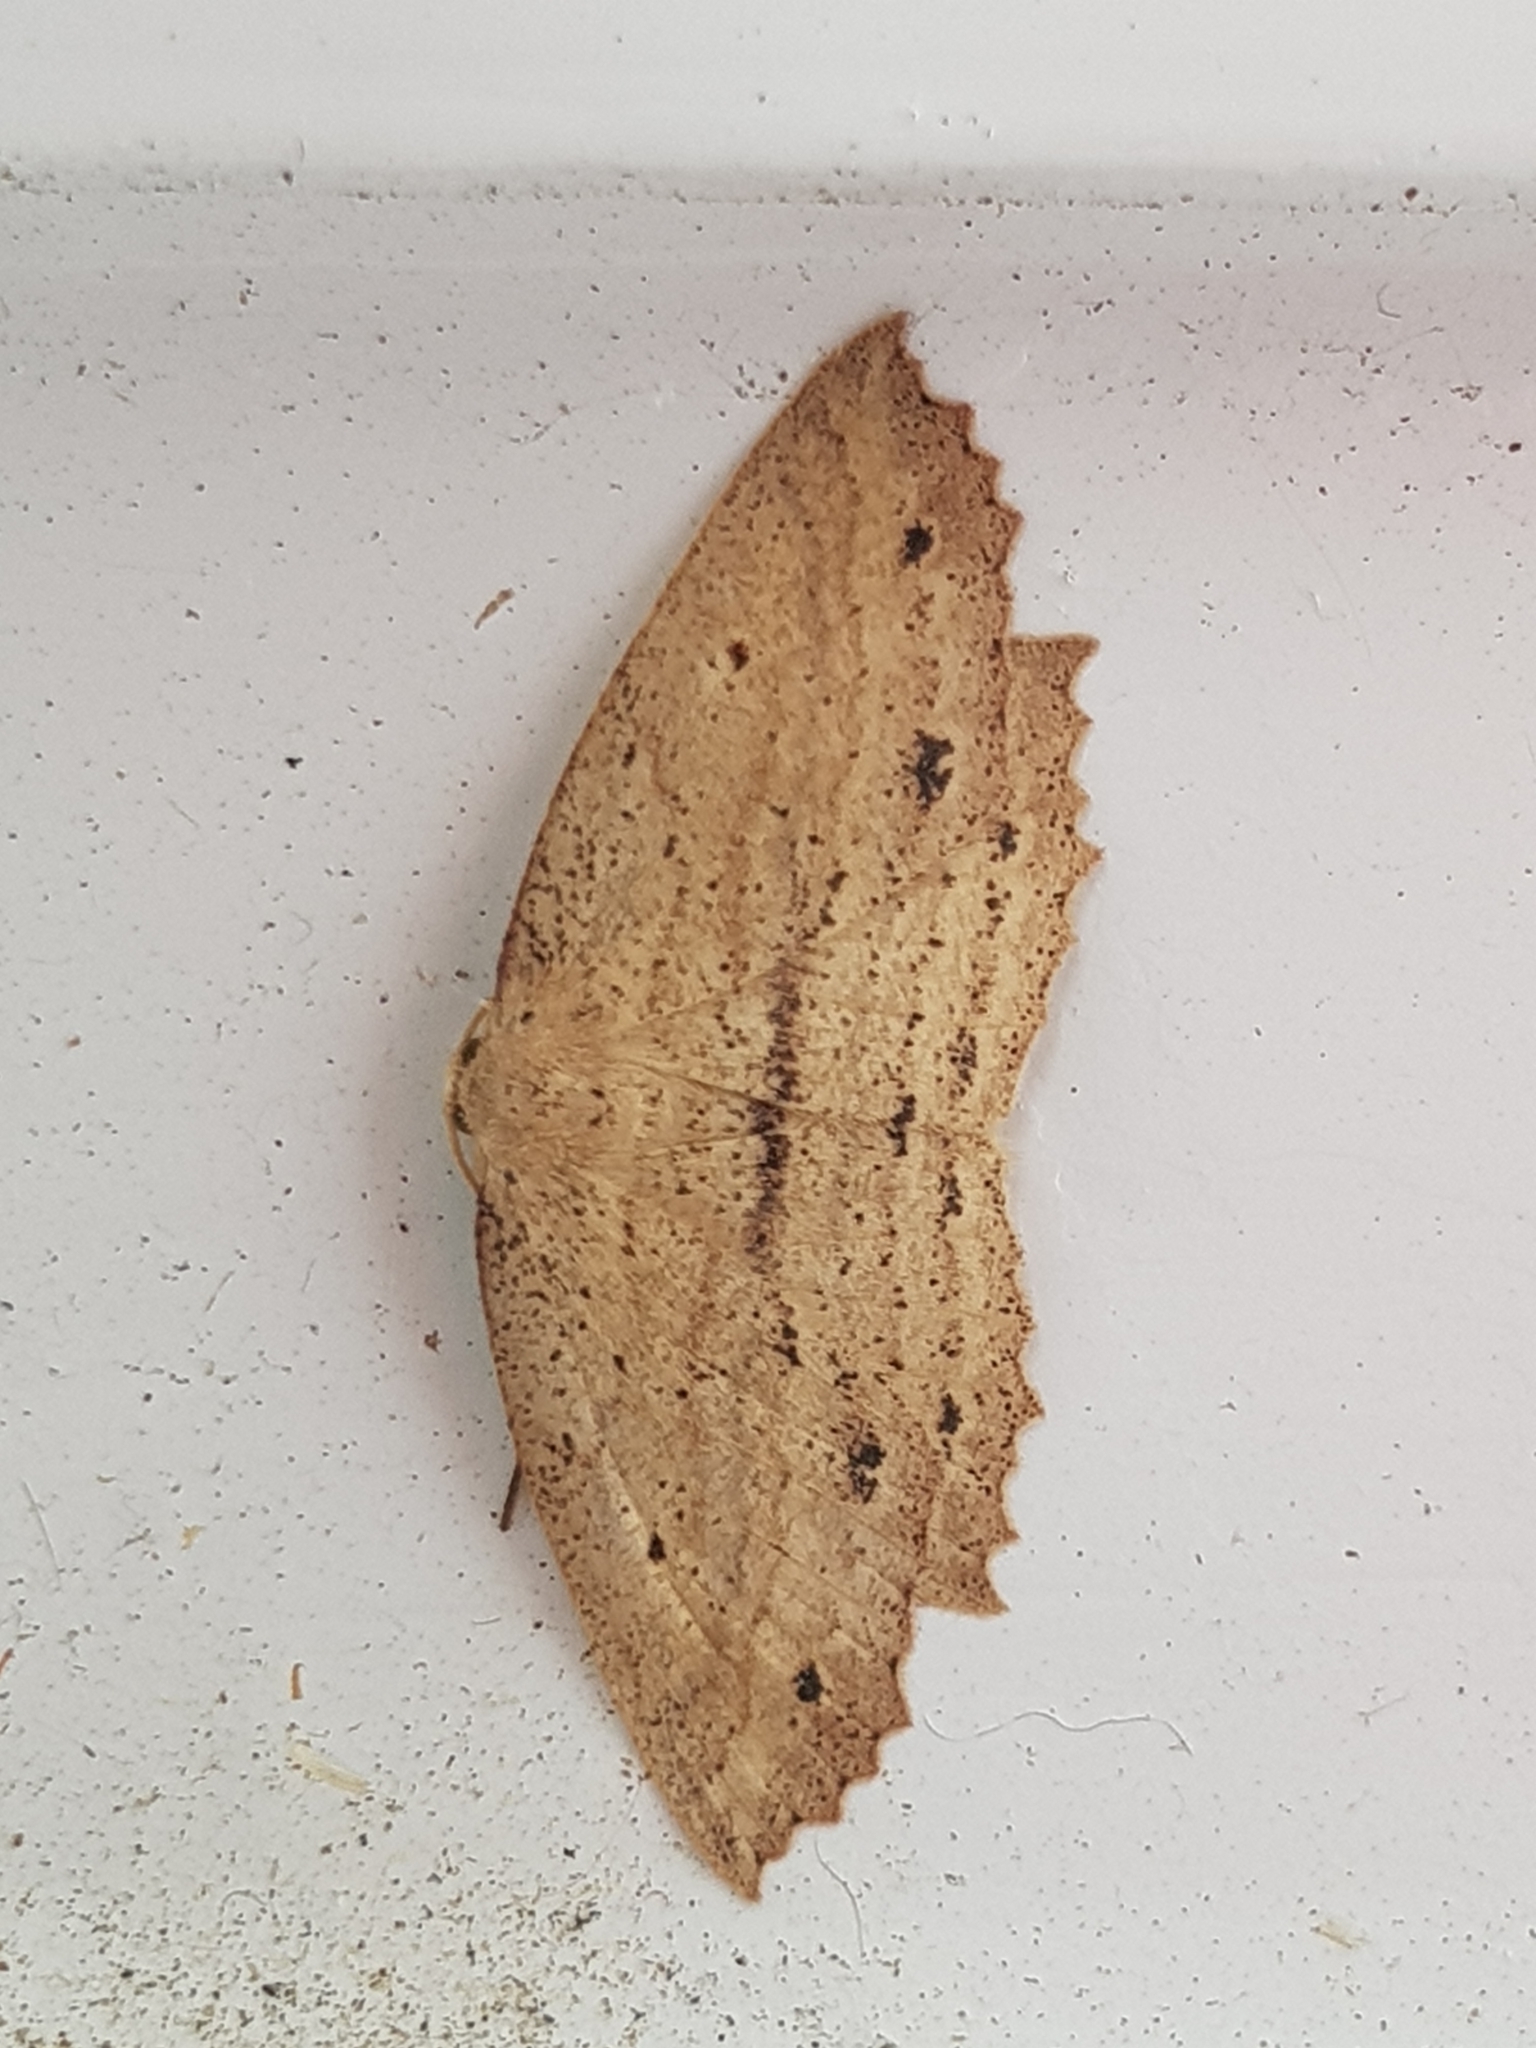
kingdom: Animalia
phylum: Arthropoda
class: Insecta
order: Lepidoptera
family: Geometridae
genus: Xyridacma
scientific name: Xyridacma veronicae
